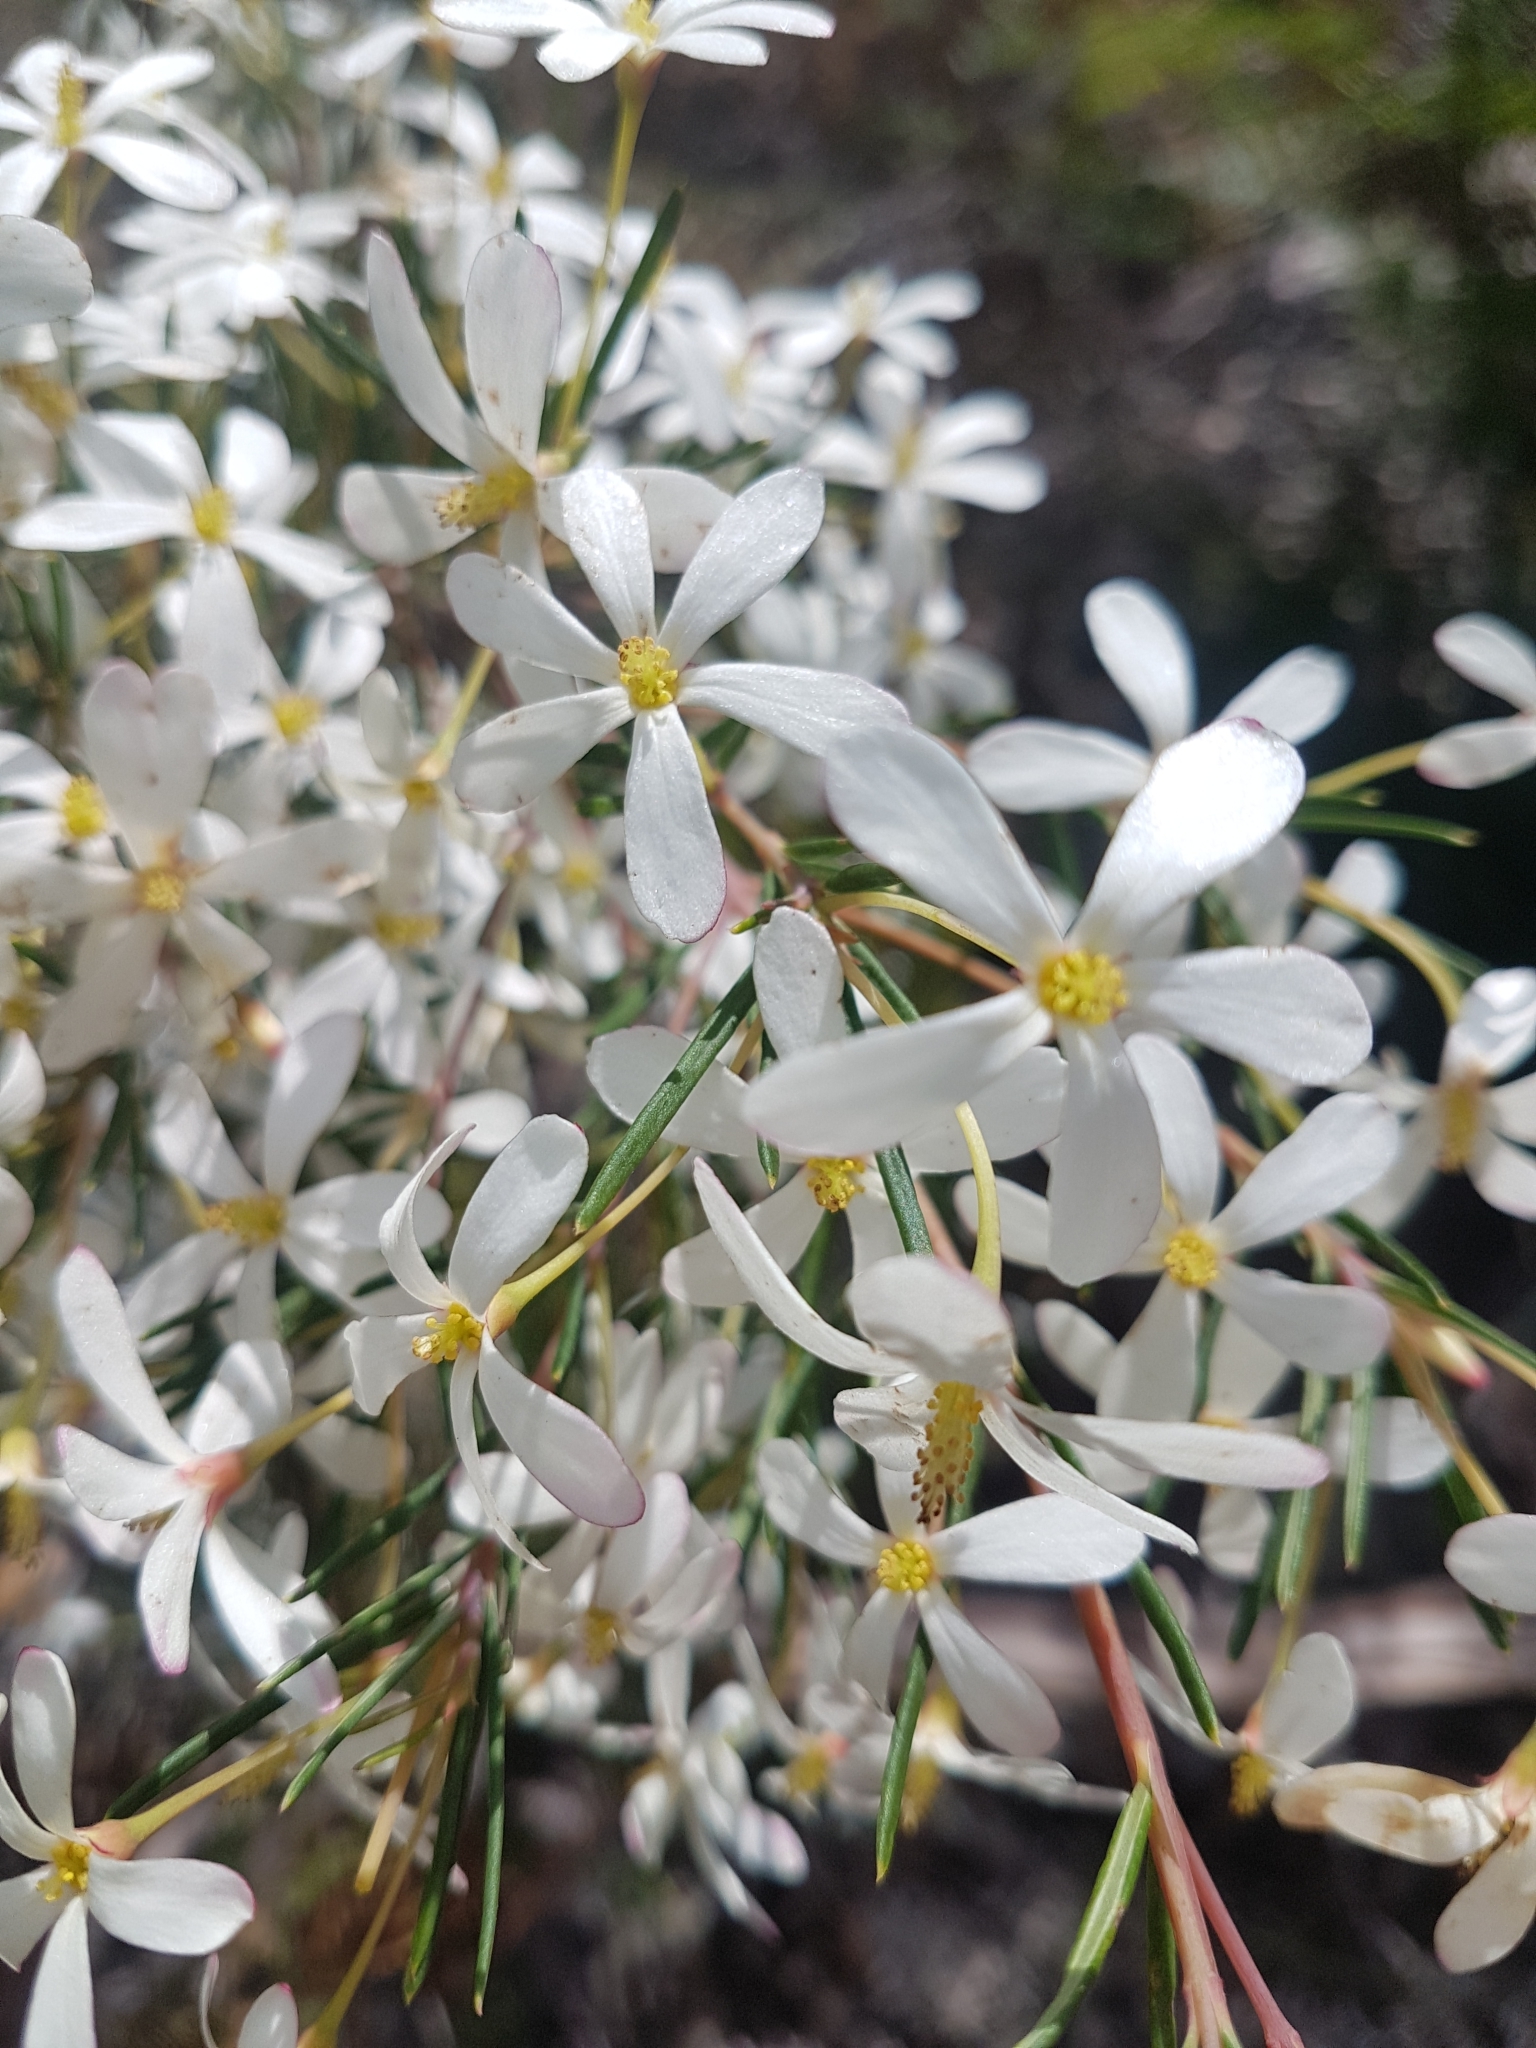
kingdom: Plantae
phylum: Tracheophyta
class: Magnoliopsida
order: Malpighiales
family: Euphorbiaceae
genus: Ricinocarpos
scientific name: Ricinocarpos pinifolius
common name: Weddingbush
